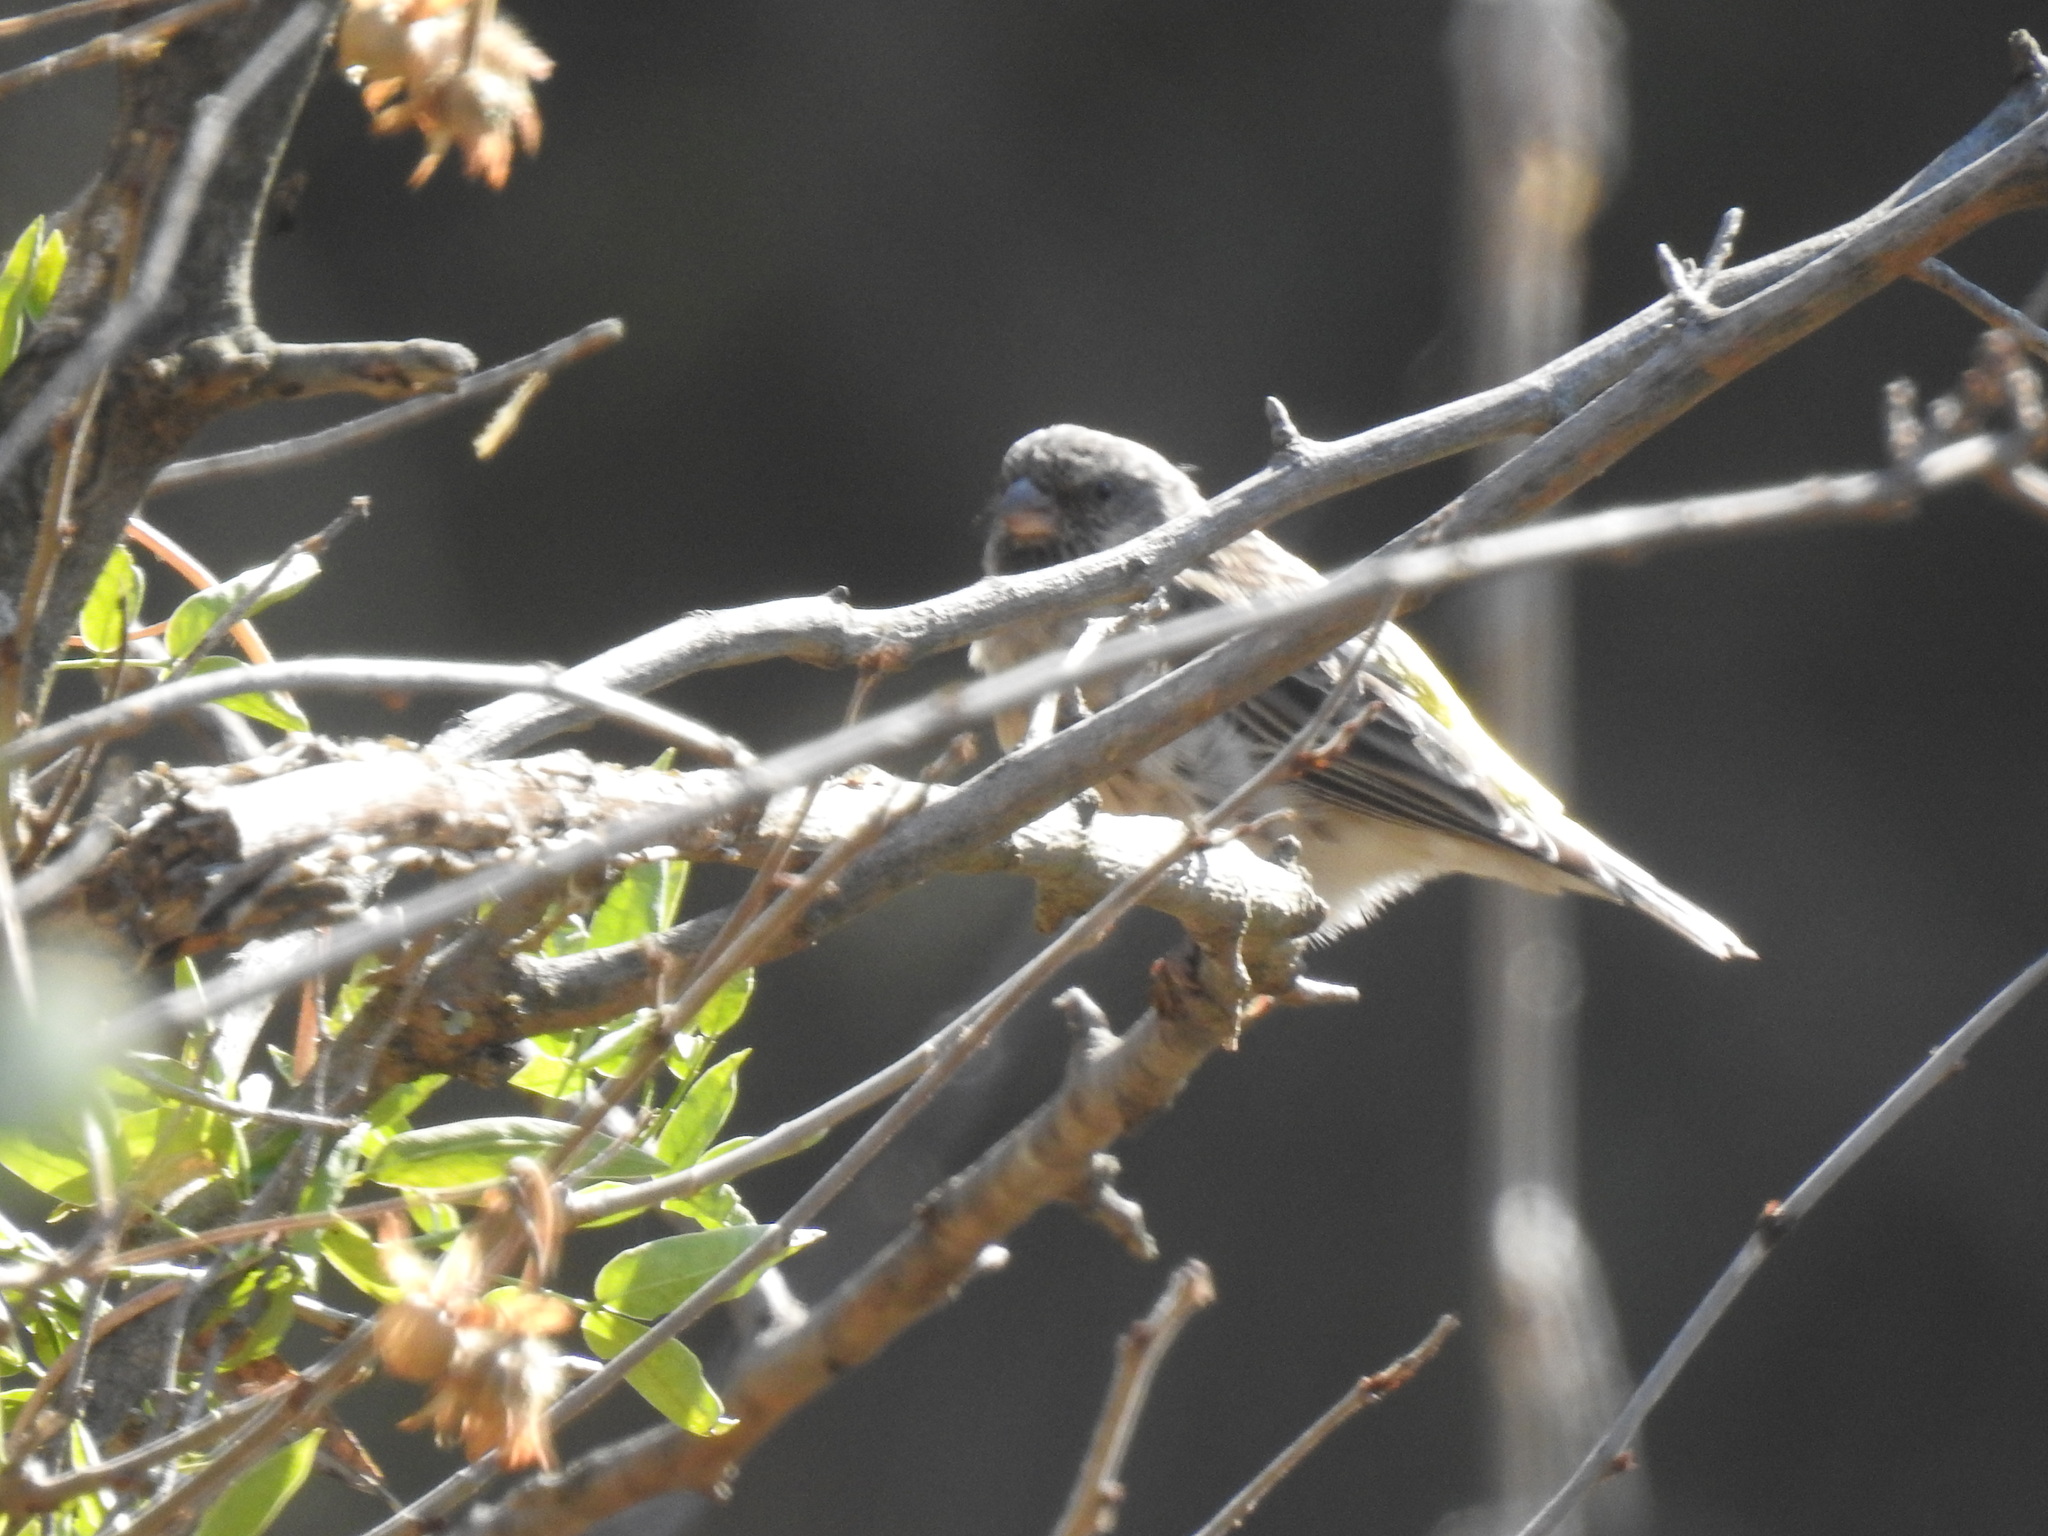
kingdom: Animalia
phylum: Chordata
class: Aves
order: Passeriformes
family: Fringillidae
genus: Crithagra
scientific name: Crithagra atrogularis
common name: Black-throated canary
